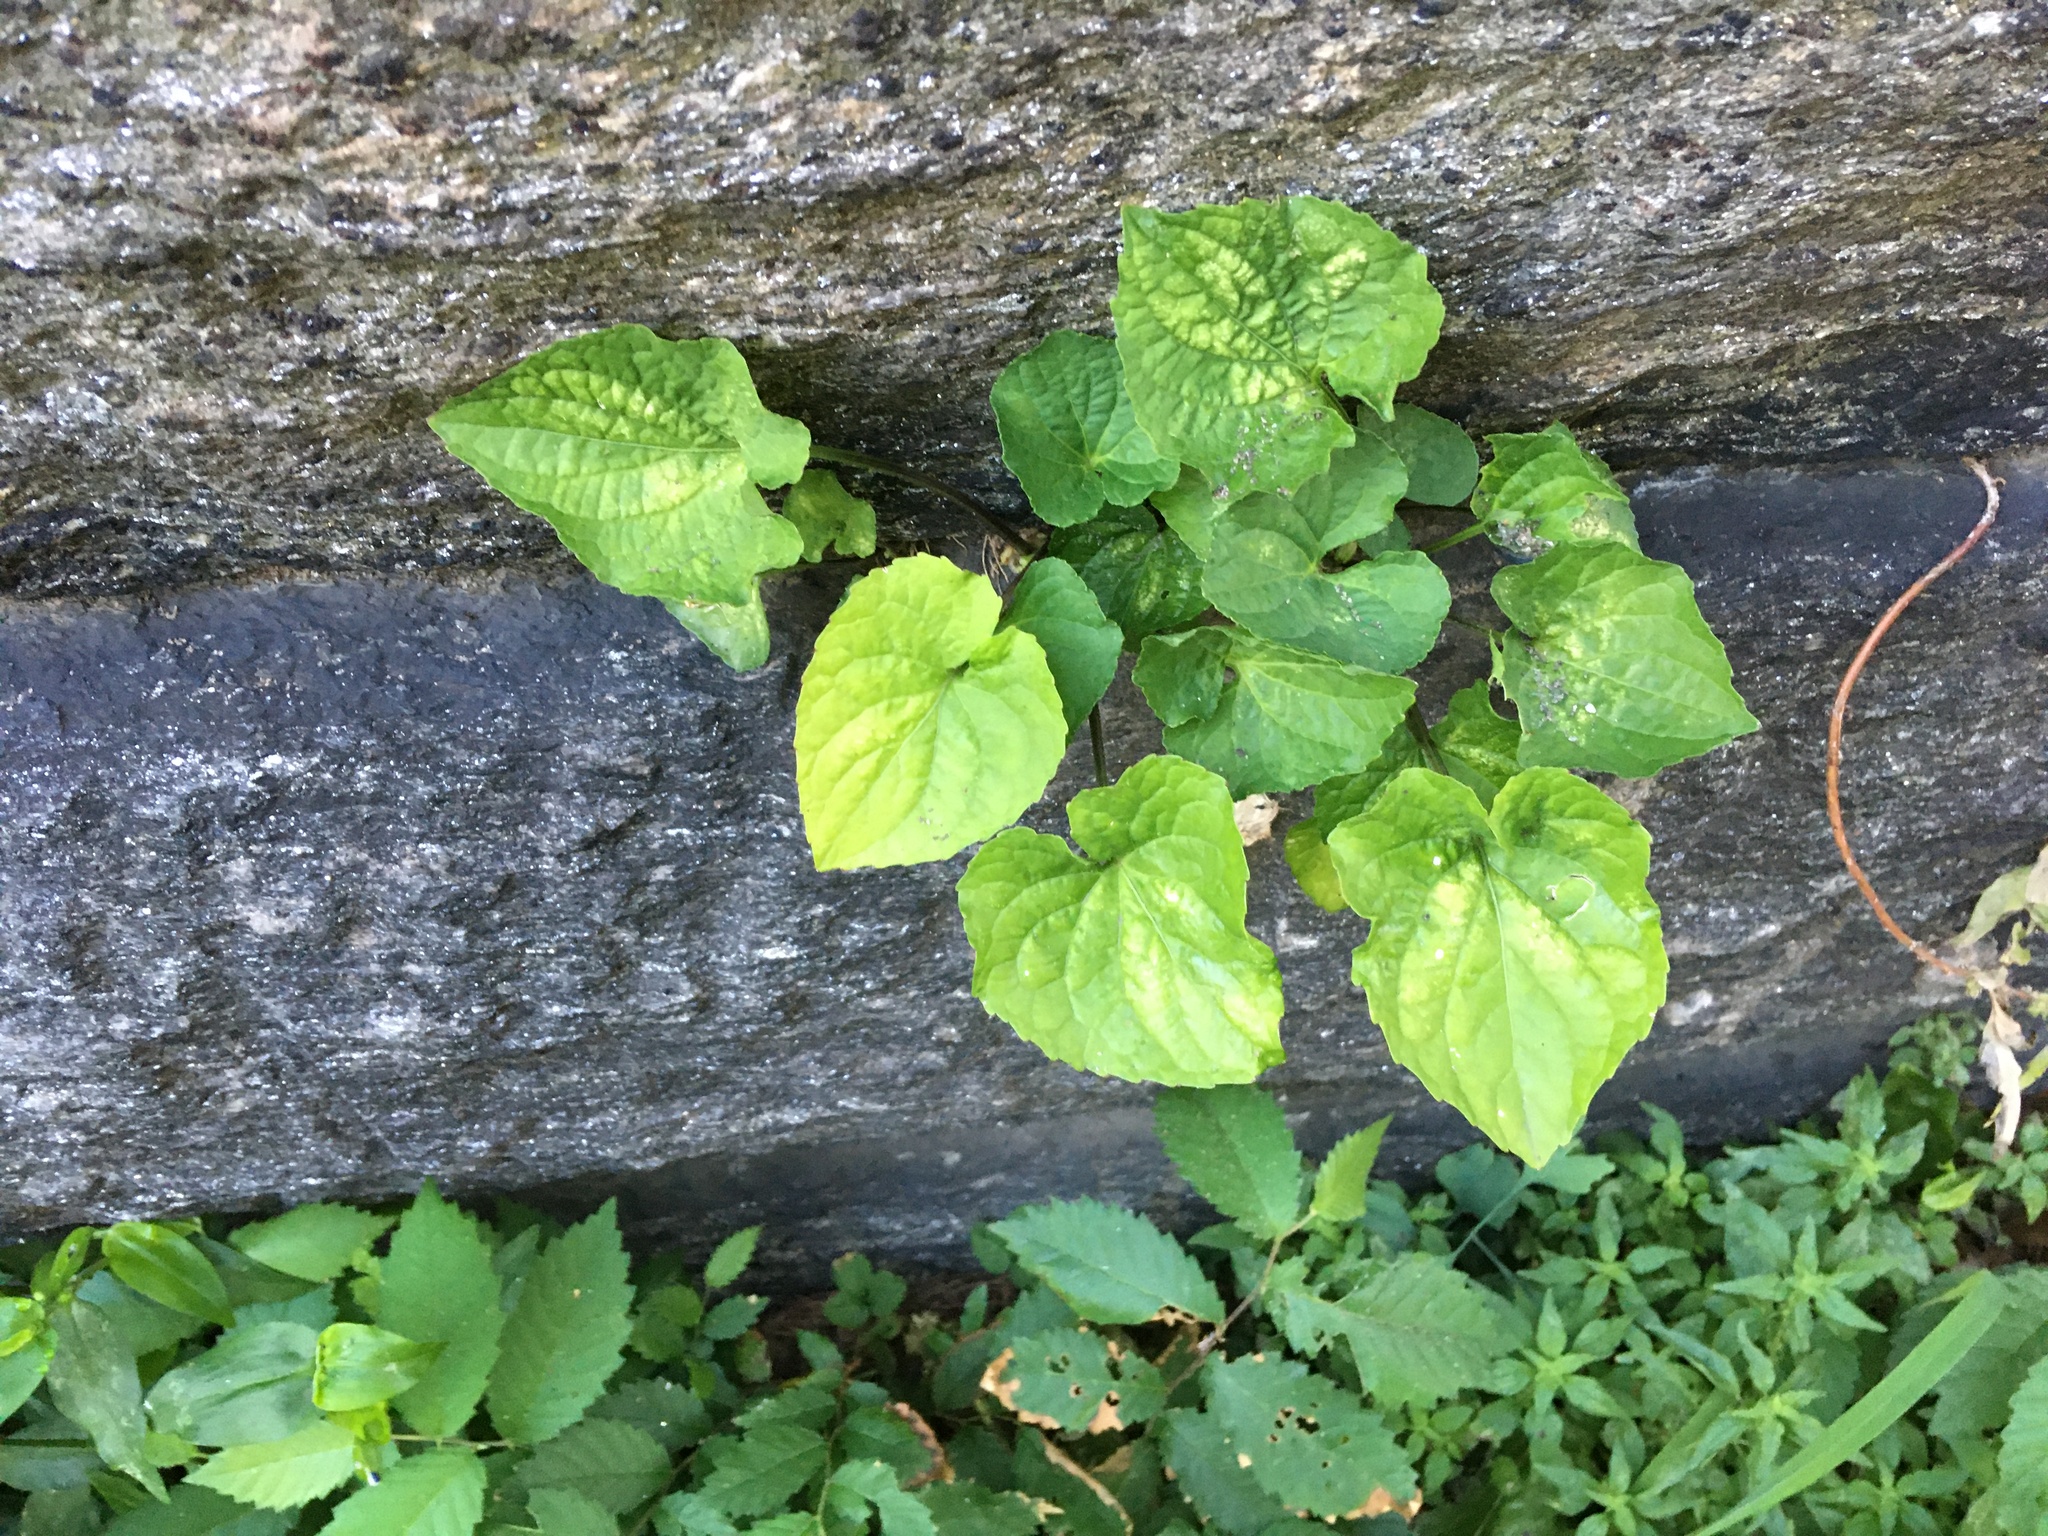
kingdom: Plantae
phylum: Tracheophyta
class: Magnoliopsida
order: Malpighiales
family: Violaceae
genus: Viola
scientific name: Viola sororia
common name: Dooryard violet
